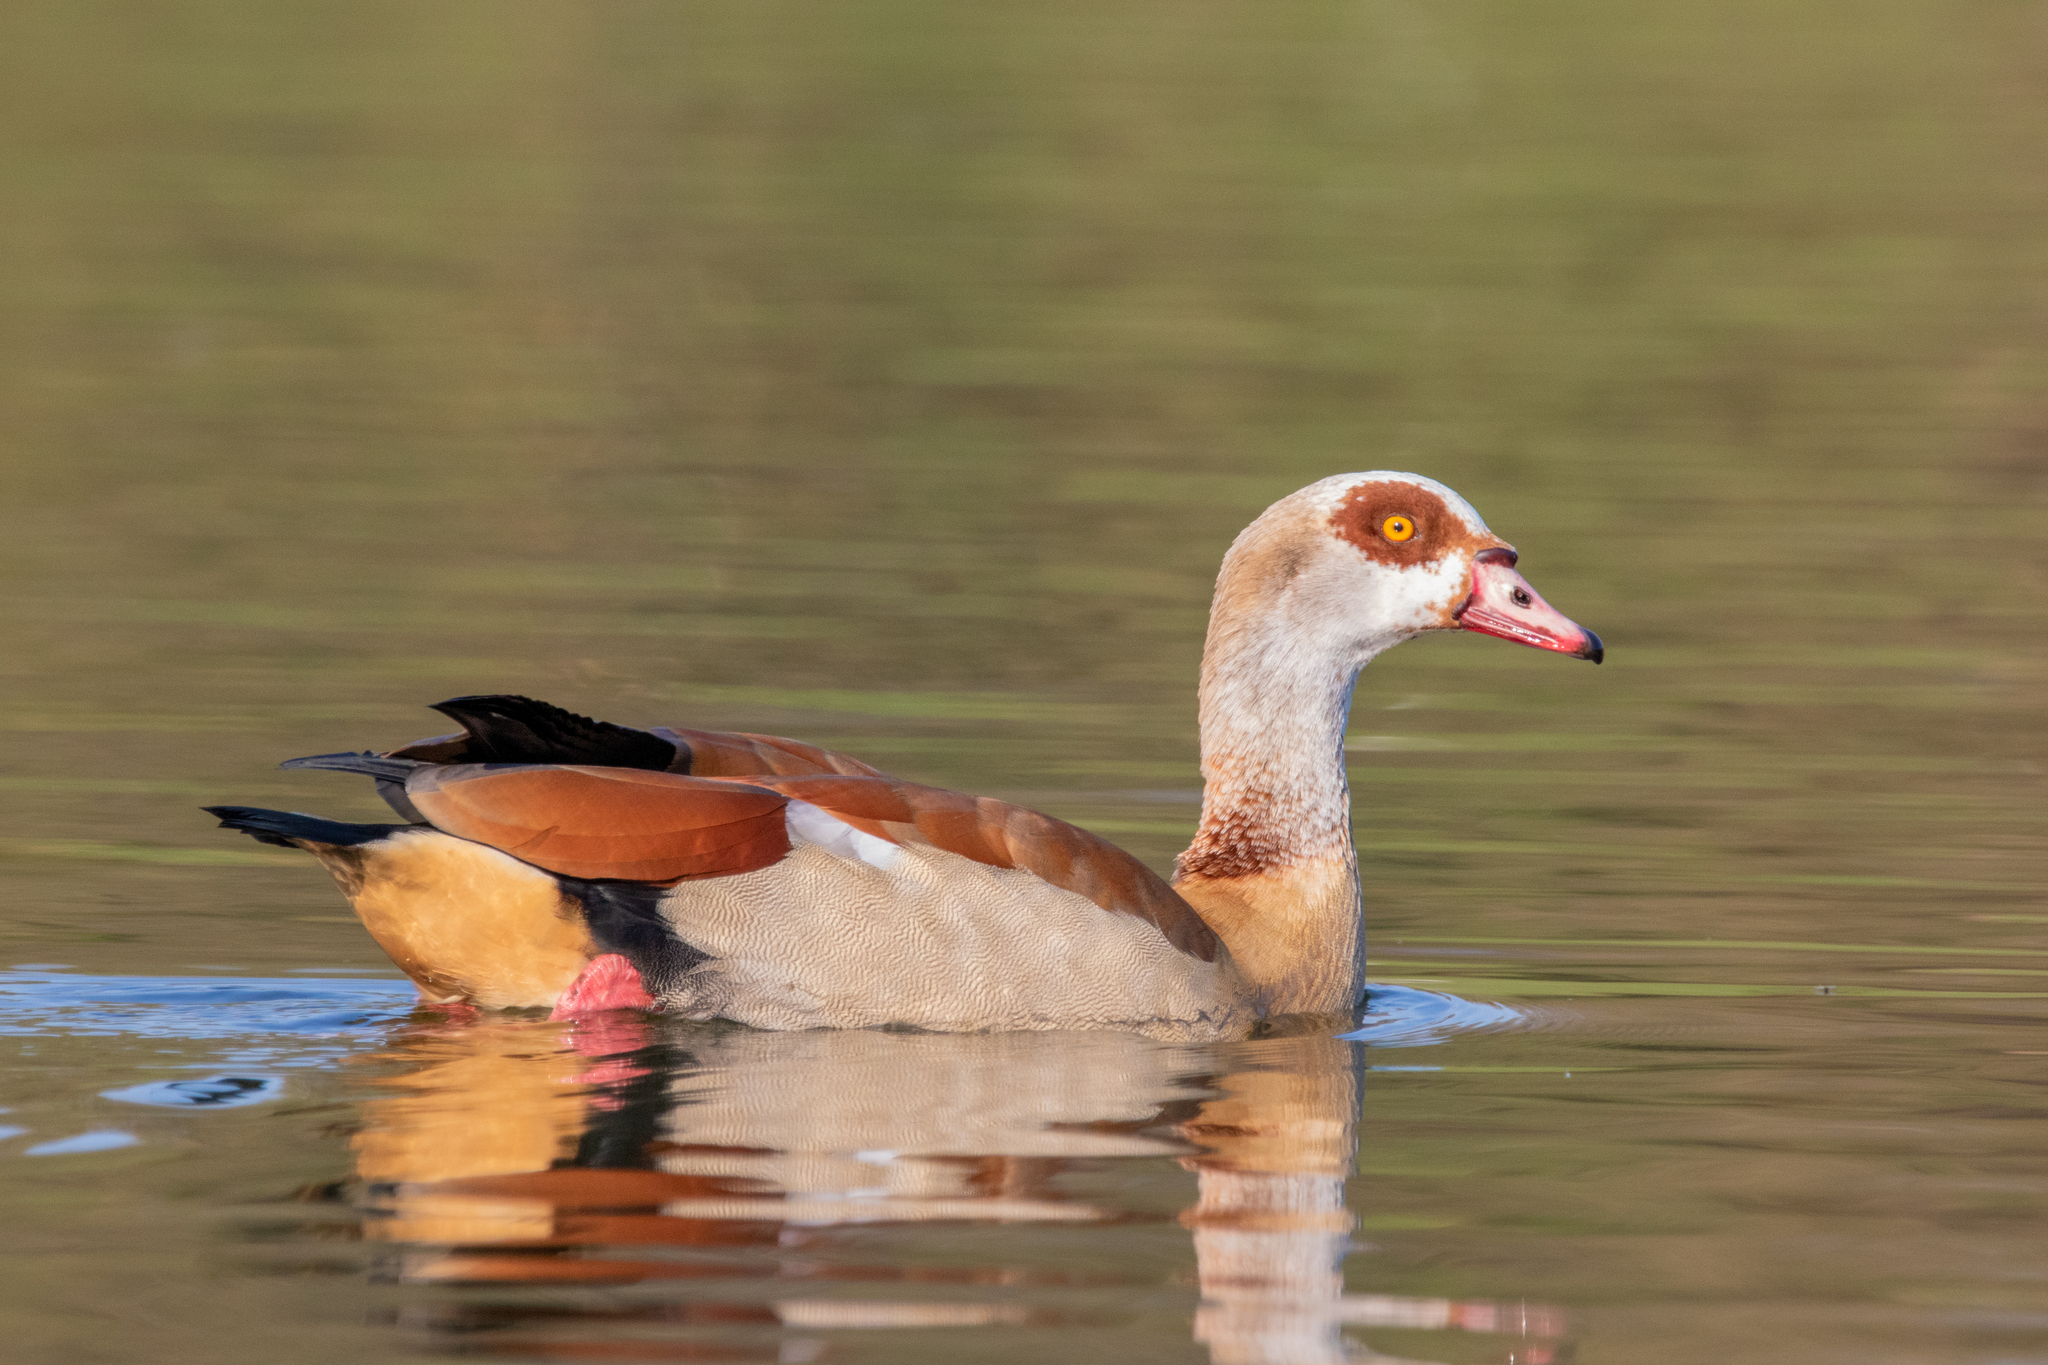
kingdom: Animalia
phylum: Chordata
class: Aves
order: Anseriformes
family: Anatidae
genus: Alopochen
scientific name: Alopochen aegyptiaca
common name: Egyptian goose
